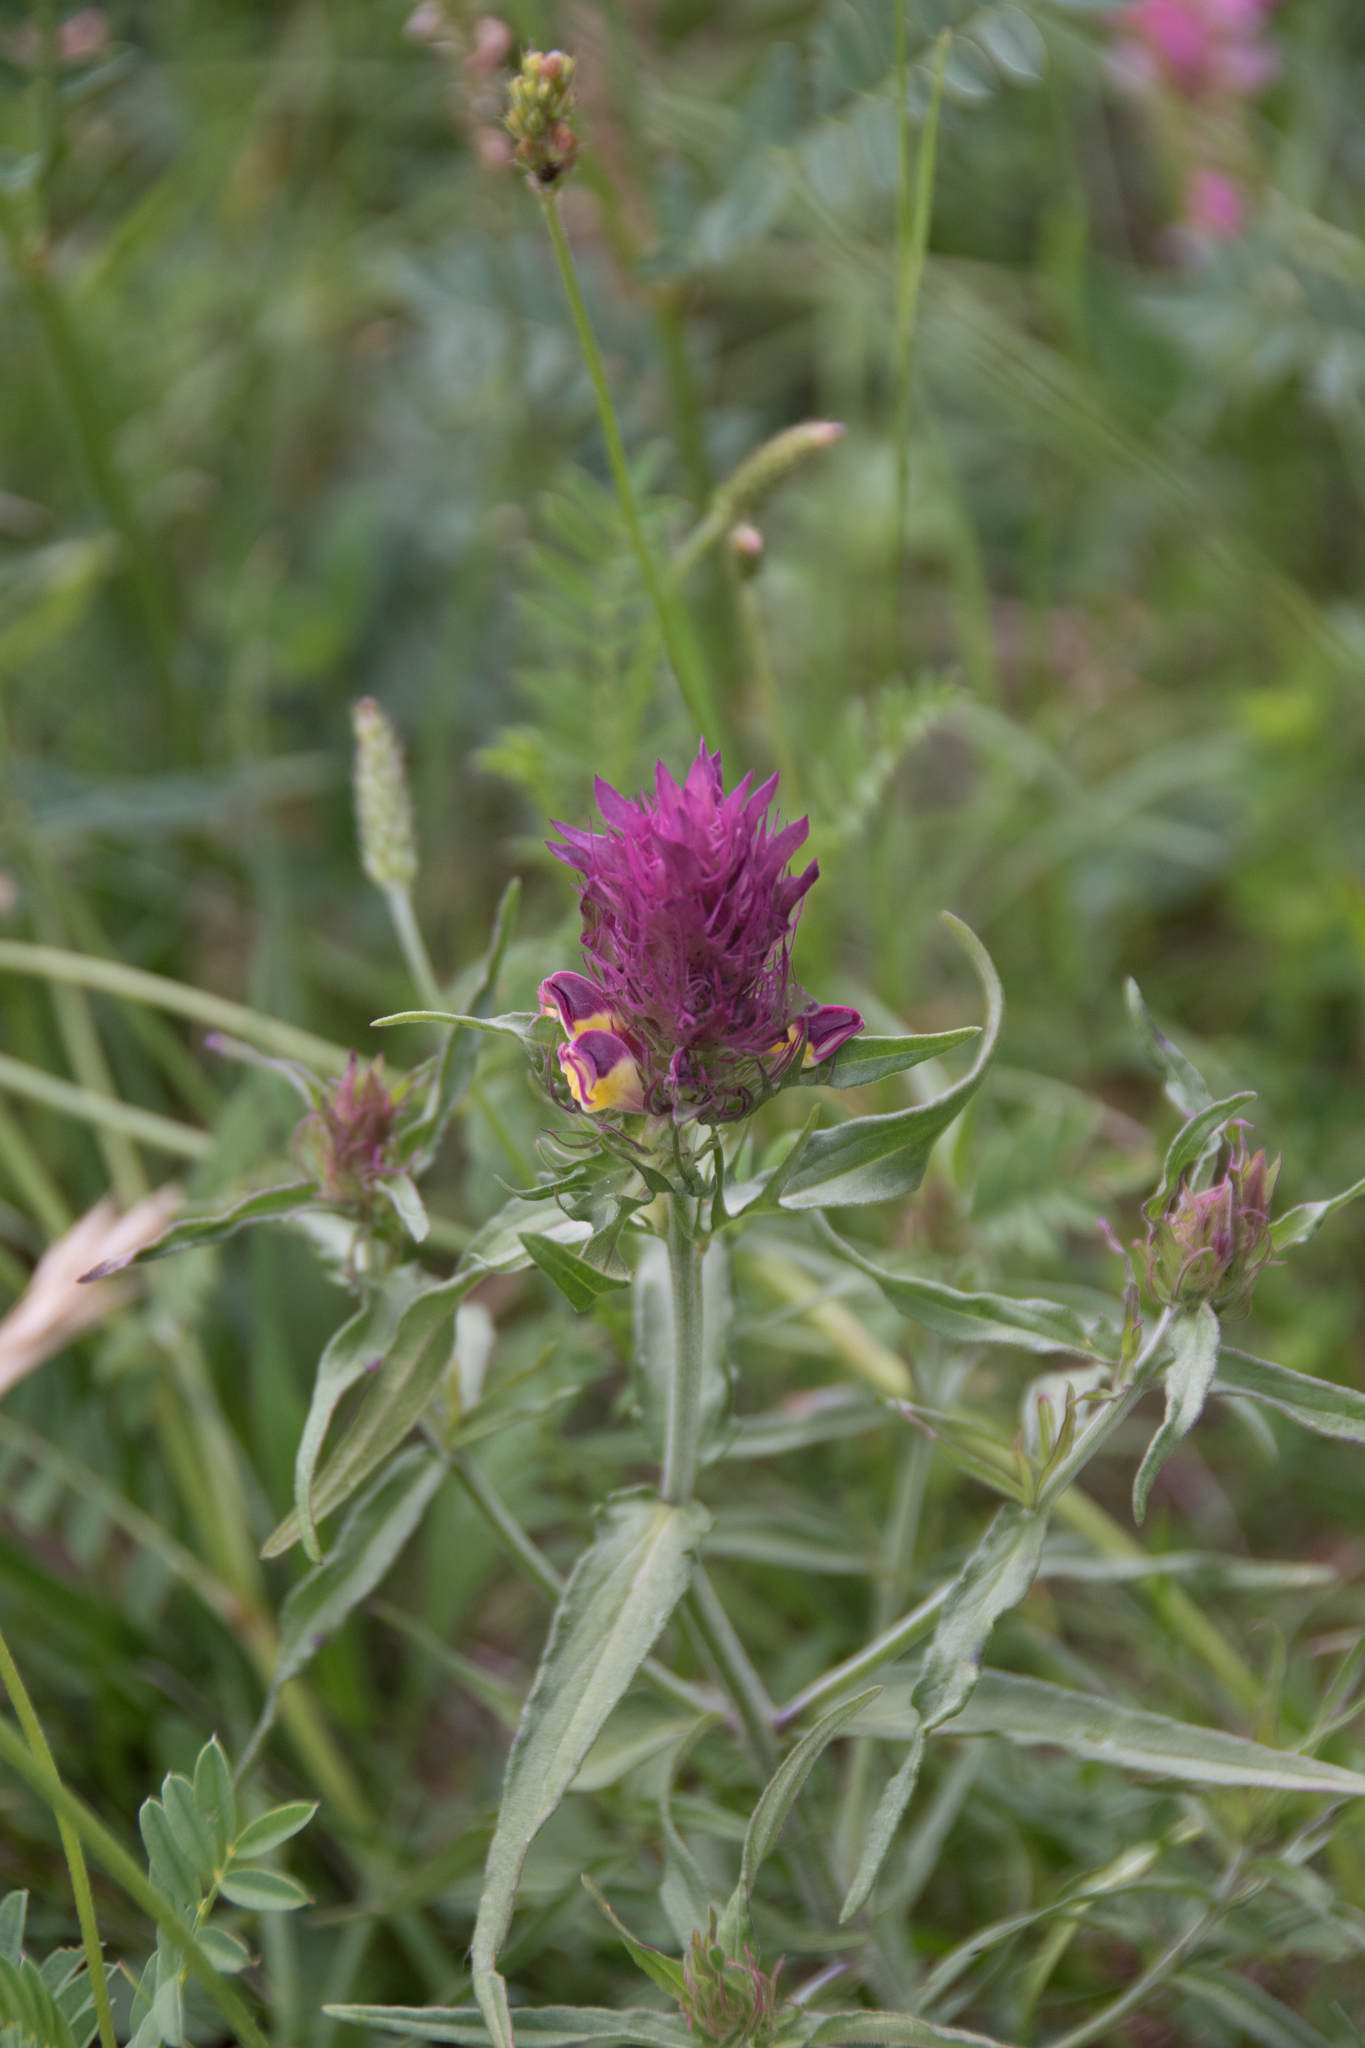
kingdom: Plantae
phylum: Tracheophyta
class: Magnoliopsida
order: Lamiales
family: Orobanchaceae
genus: Melampyrum
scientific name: Melampyrum arvense
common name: Field cow-wheat
